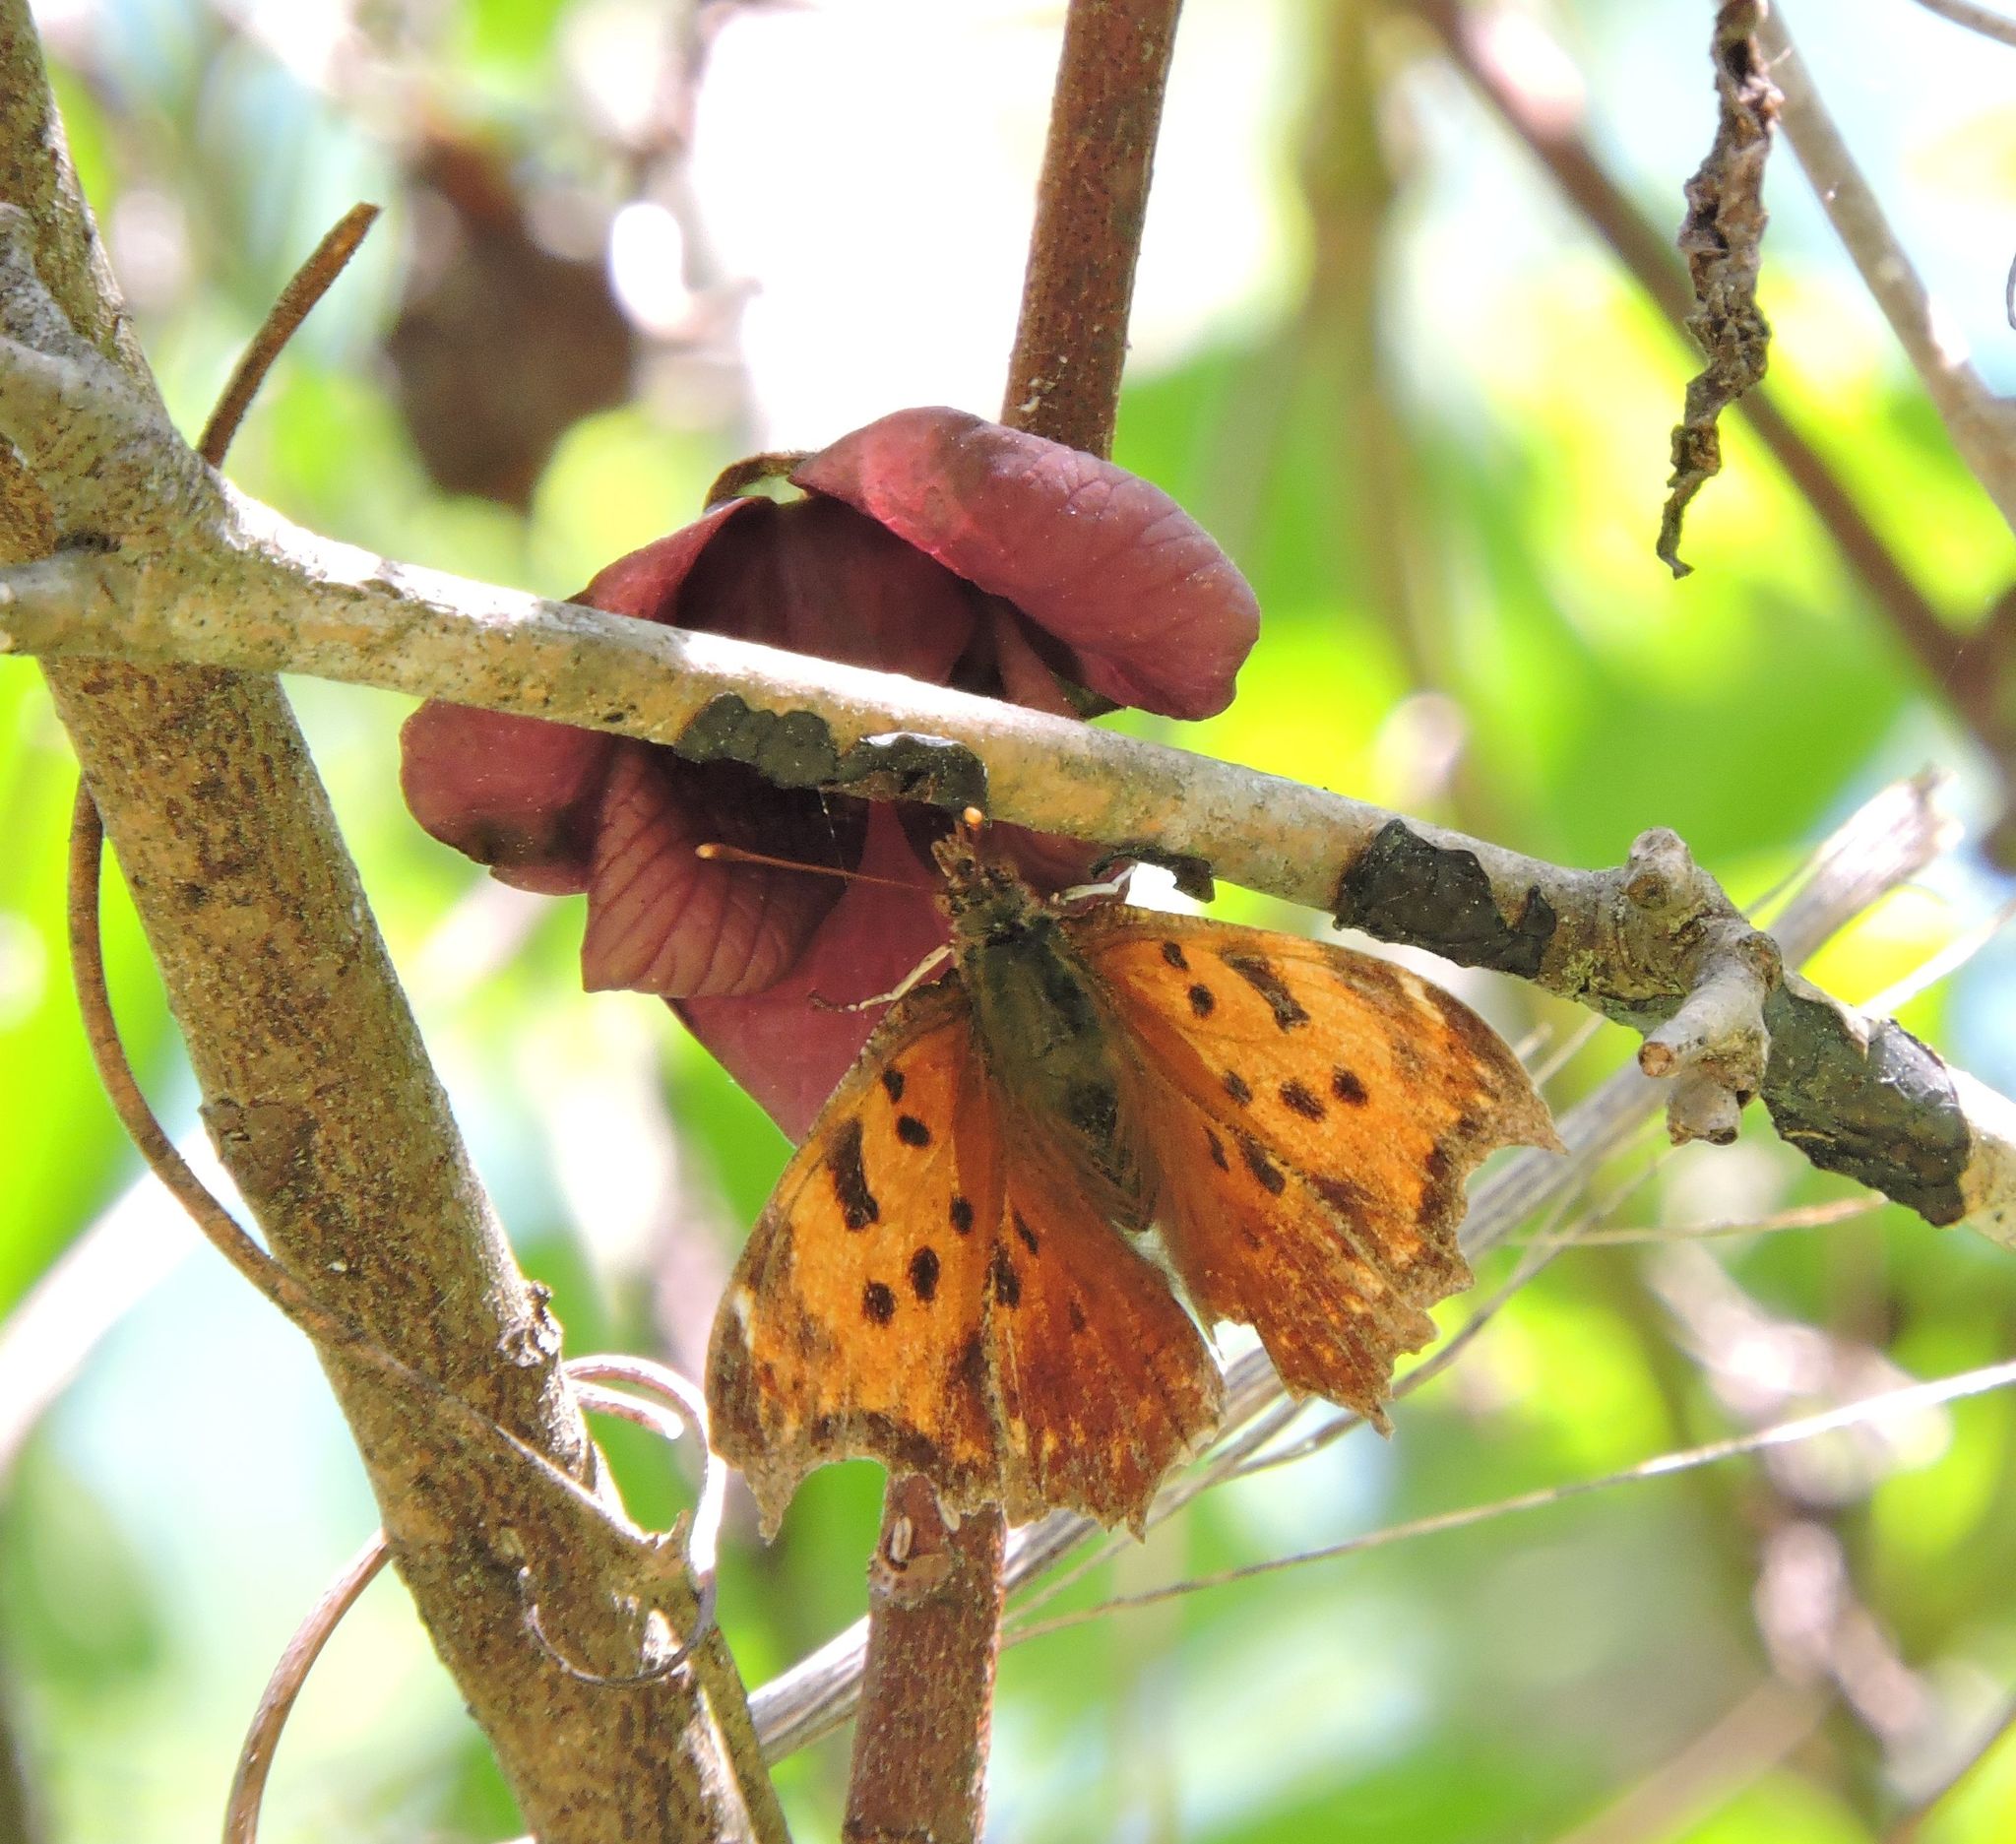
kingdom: Animalia
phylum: Arthropoda
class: Insecta
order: Lepidoptera
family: Nymphalidae
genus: Polygonia
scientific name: Polygonia comma
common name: Eastern comma
